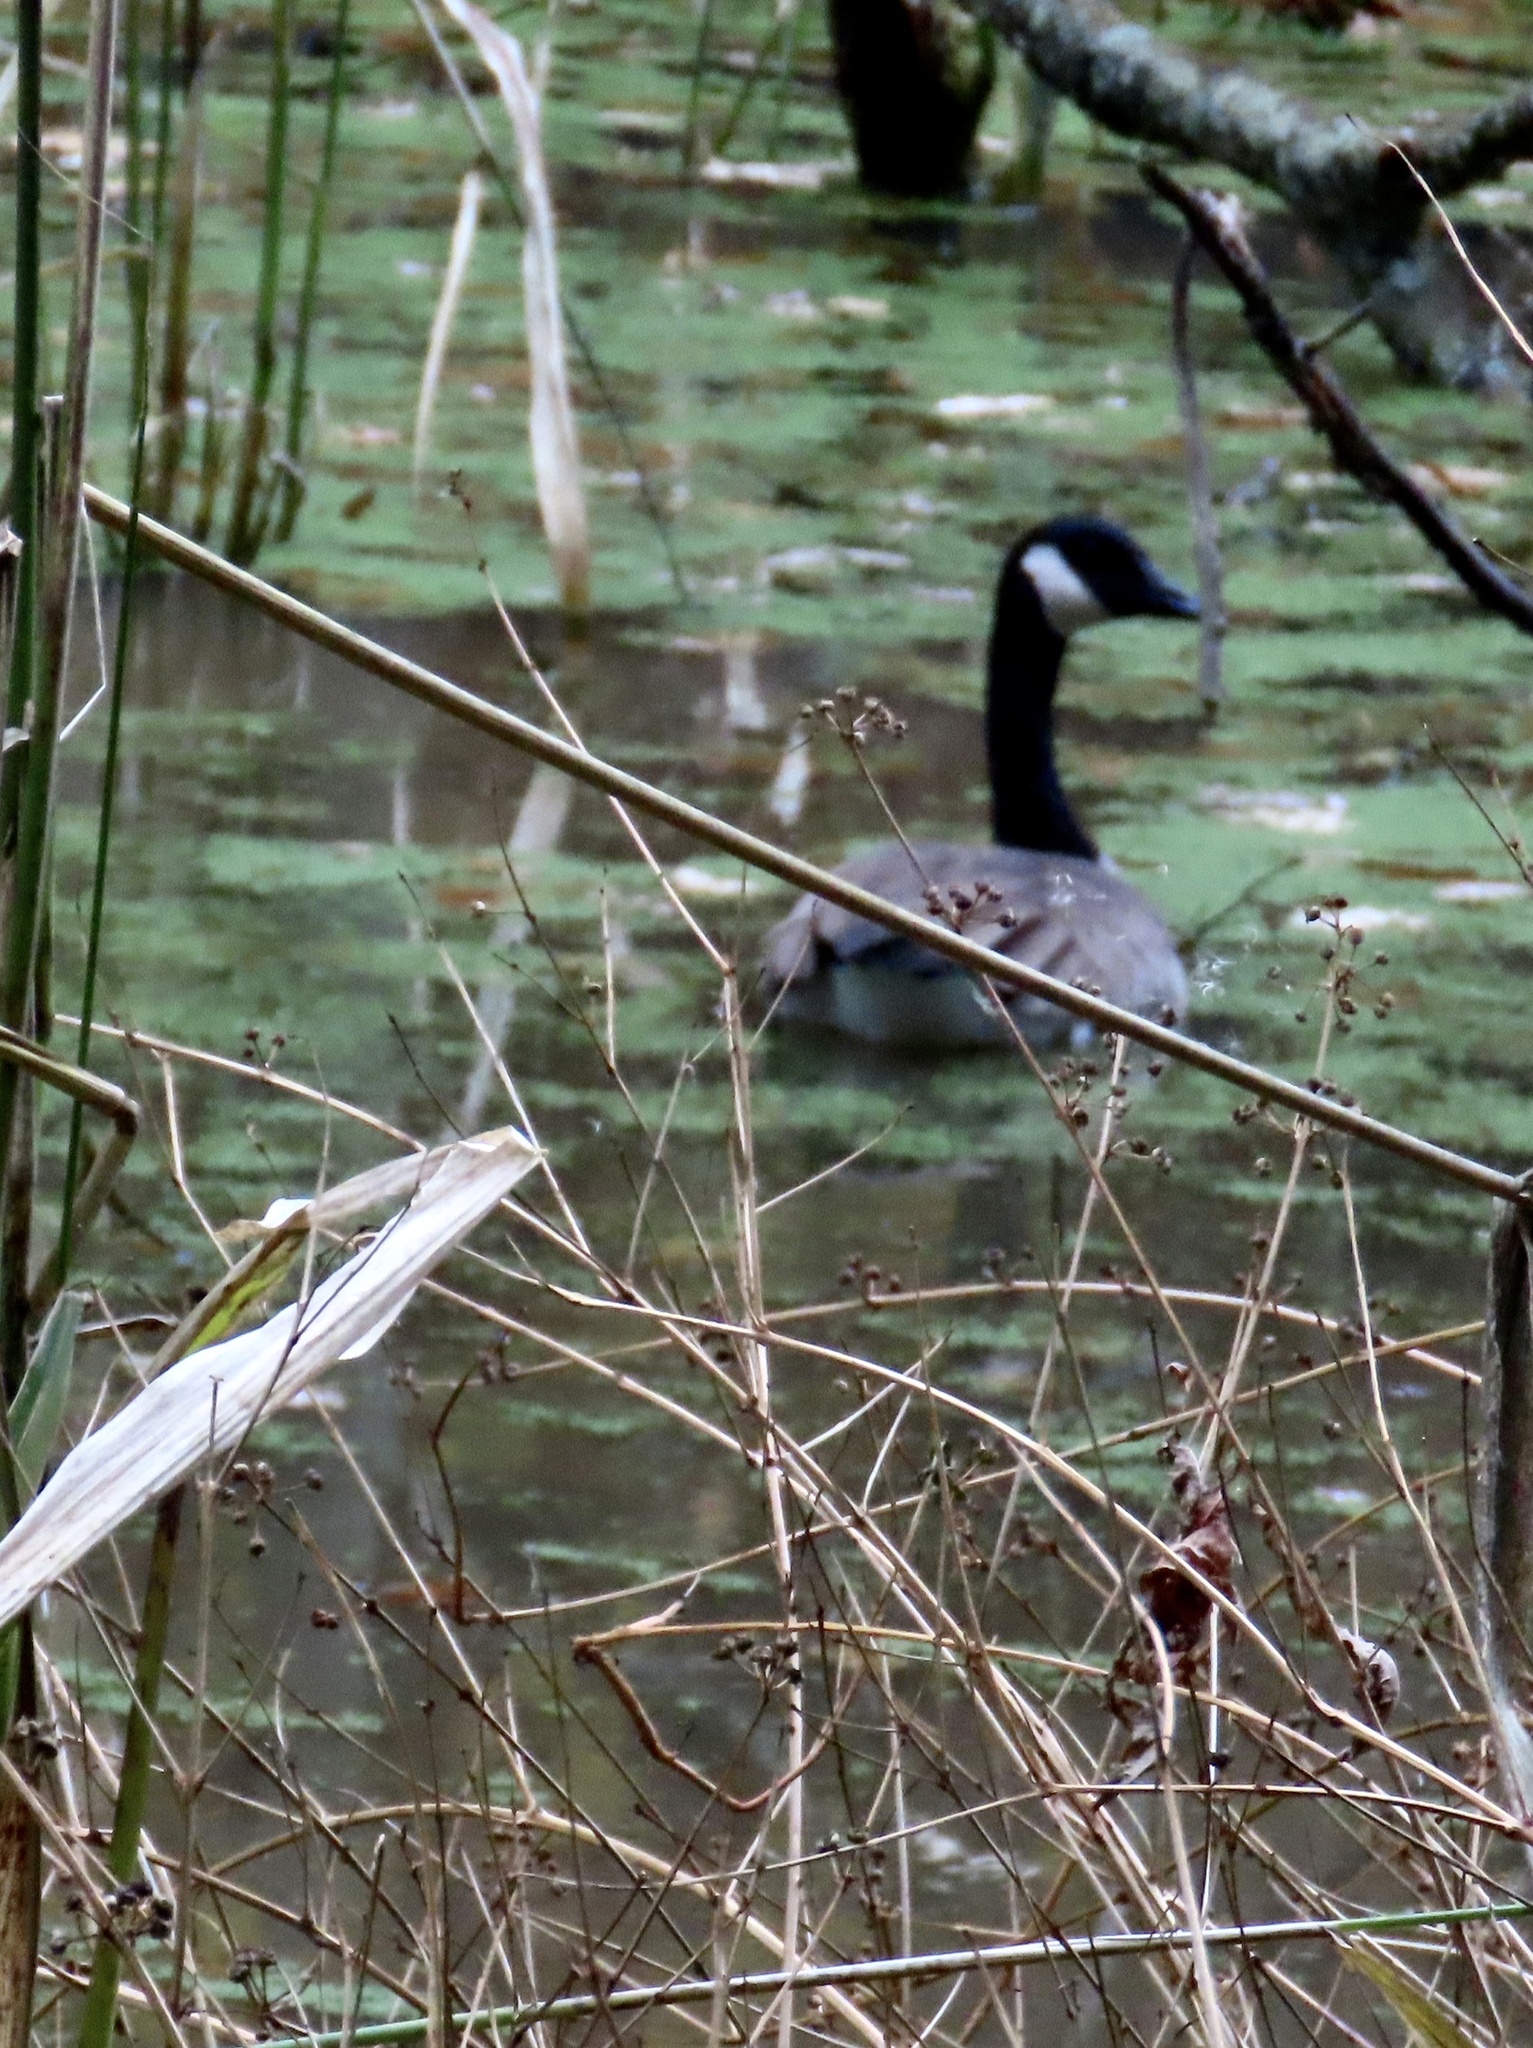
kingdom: Animalia
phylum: Chordata
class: Aves
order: Anseriformes
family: Anatidae
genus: Branta
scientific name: Branta canadensis
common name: Canada goose
